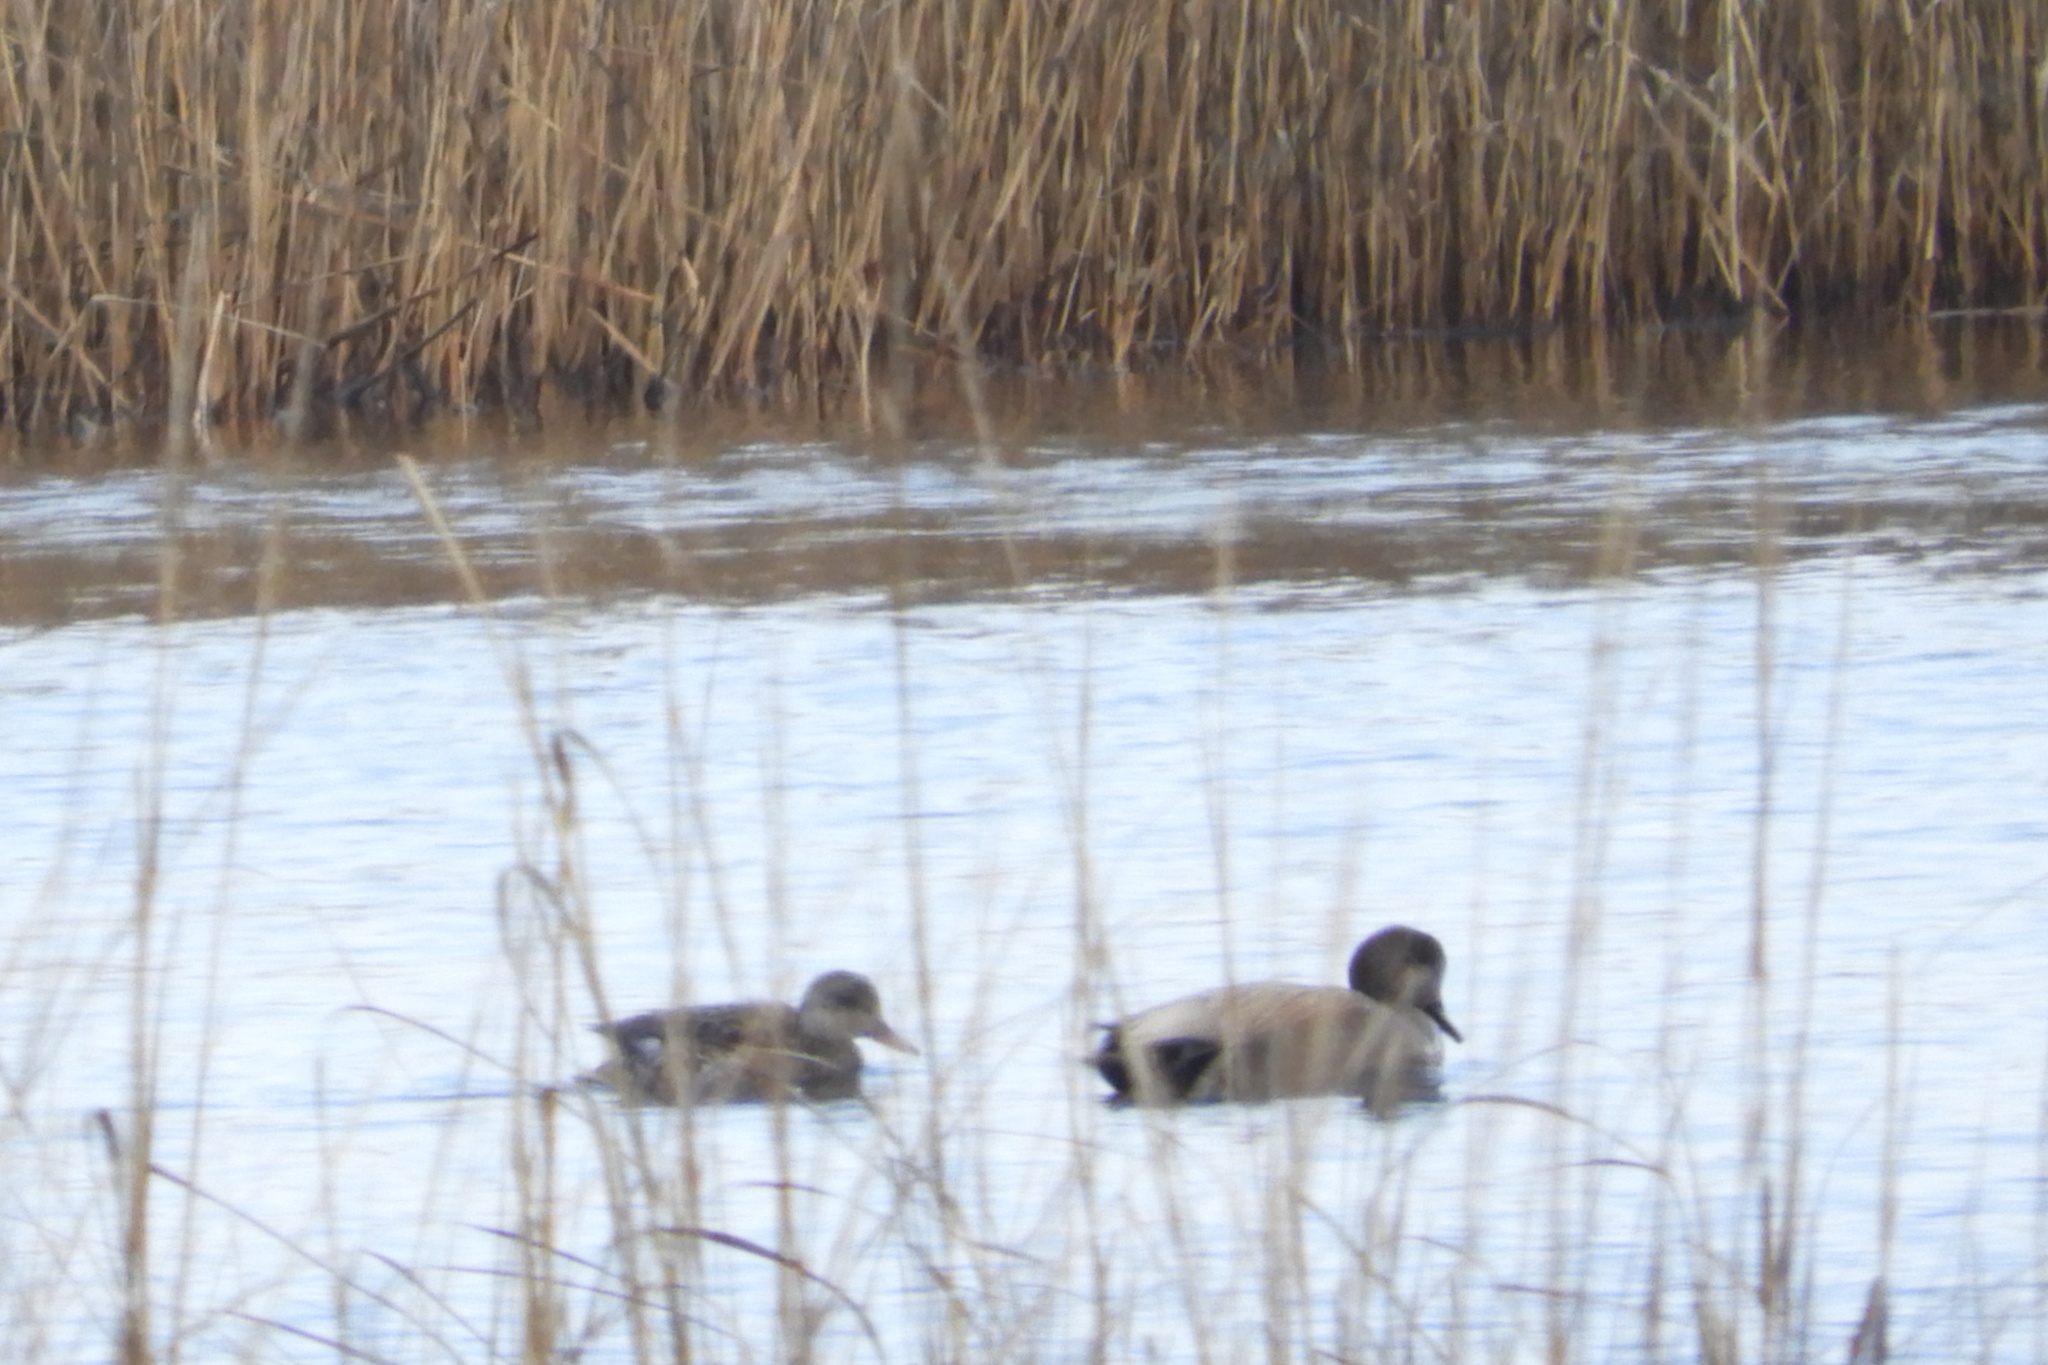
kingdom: Animalia
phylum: Chordata
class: Aves
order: Anseriformes
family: Anatidae
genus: Mareca
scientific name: Mareca strepera
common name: Gadwall
